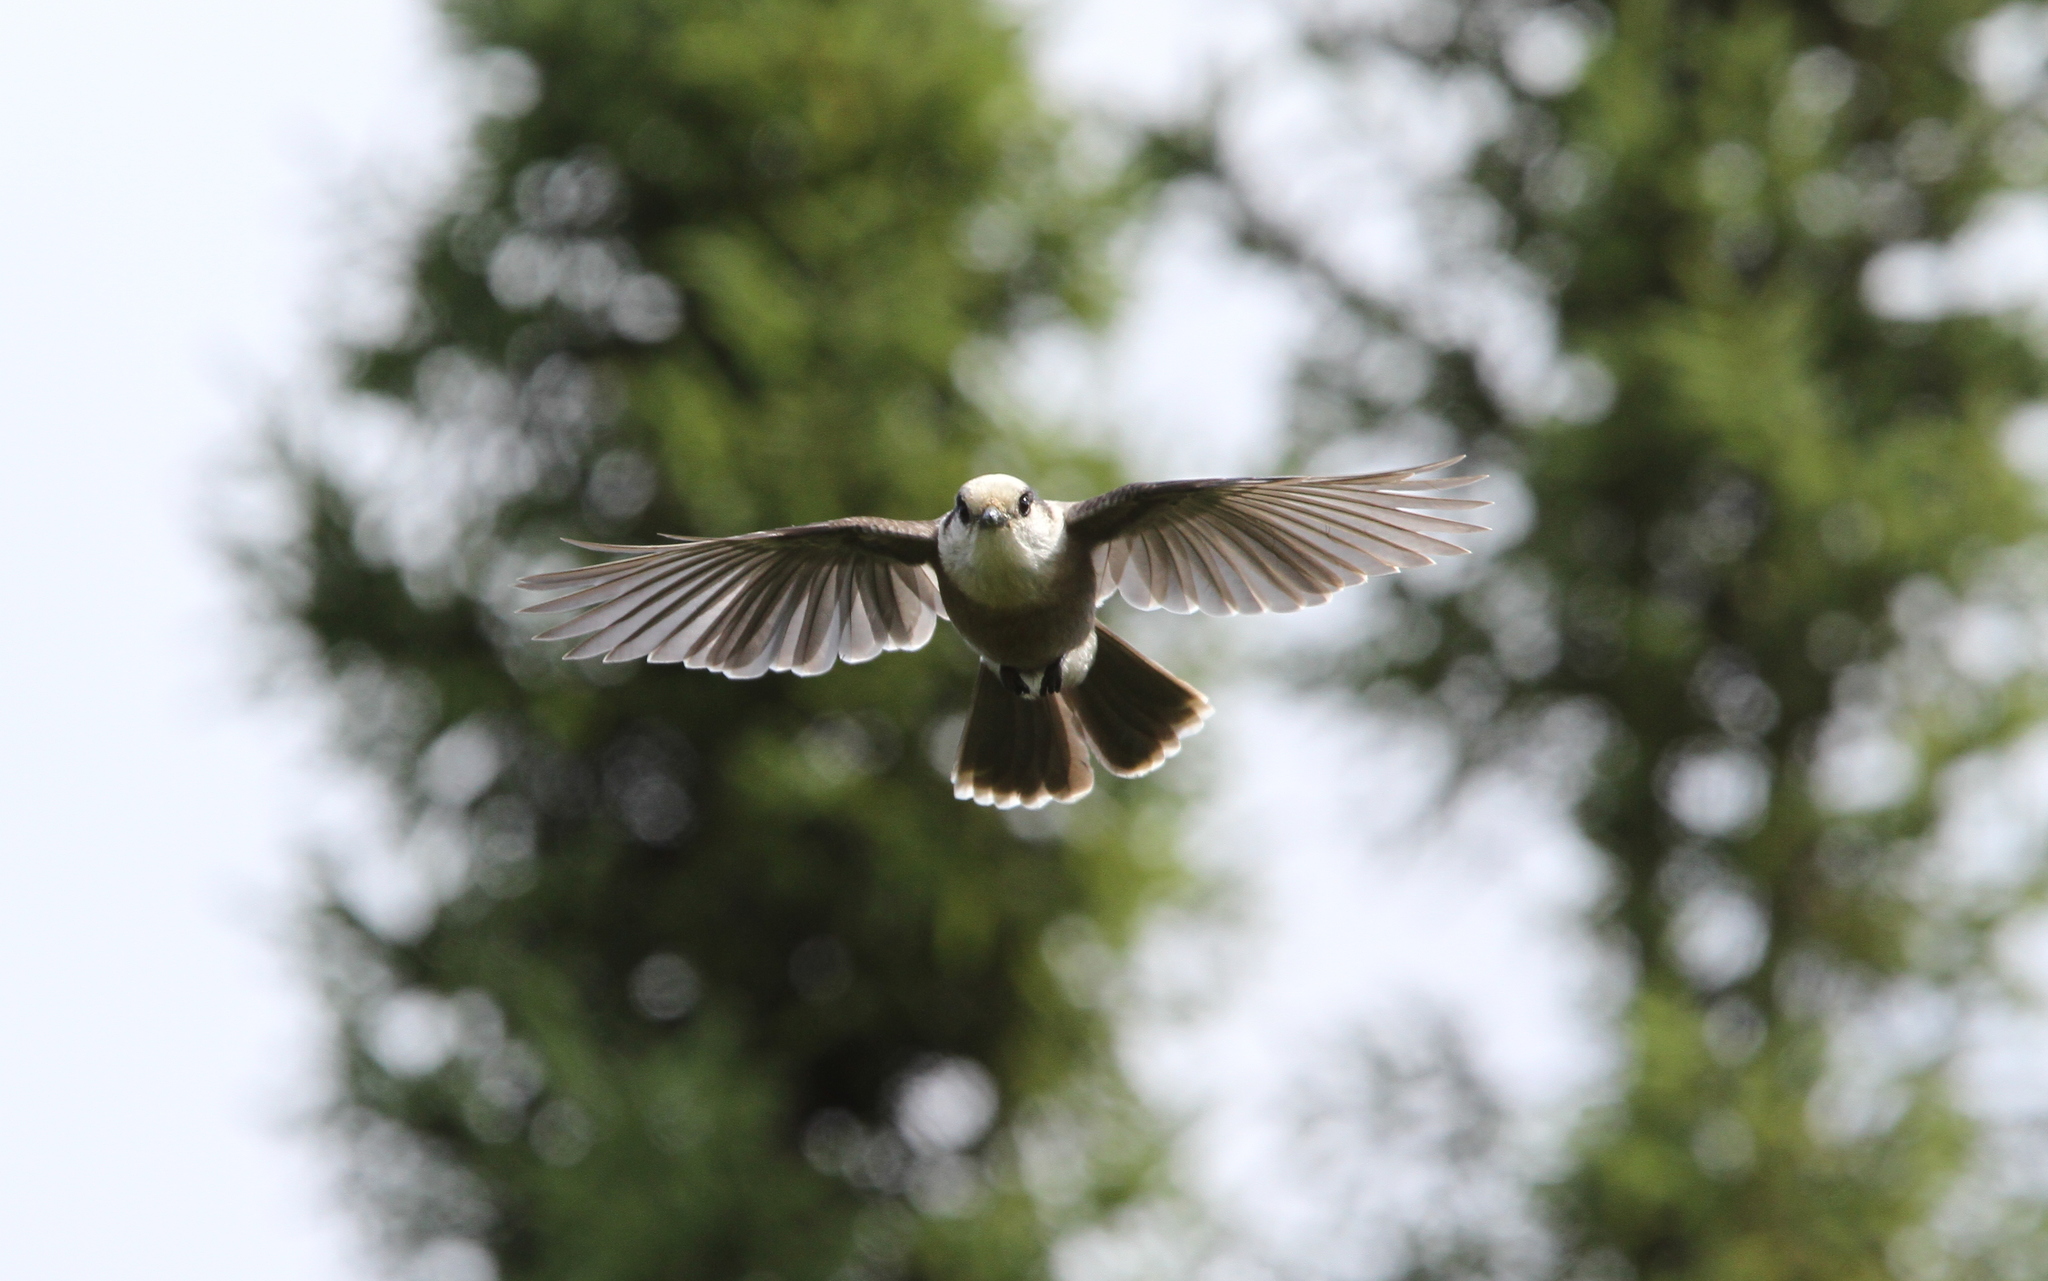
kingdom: Animalia
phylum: Chordata
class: Aves
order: Passeriformes
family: Corvidae
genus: Perisoreus
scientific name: Perisoreus canadensis
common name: Gray jay
